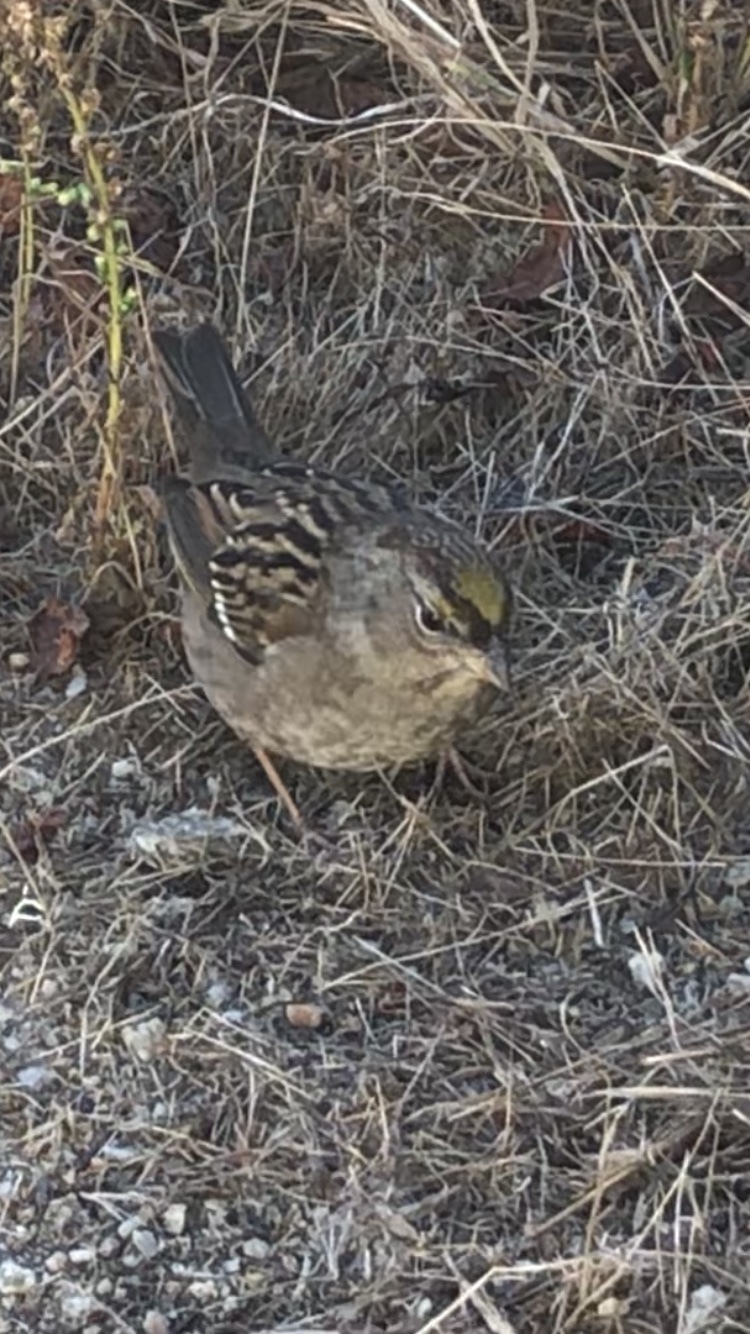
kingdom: Animalia
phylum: Chordata
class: Aves
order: Passeriformes
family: Passerellidae
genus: Zonotrichia
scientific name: Zonotrichia atricapilla
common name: Golden-crowned sparrow
